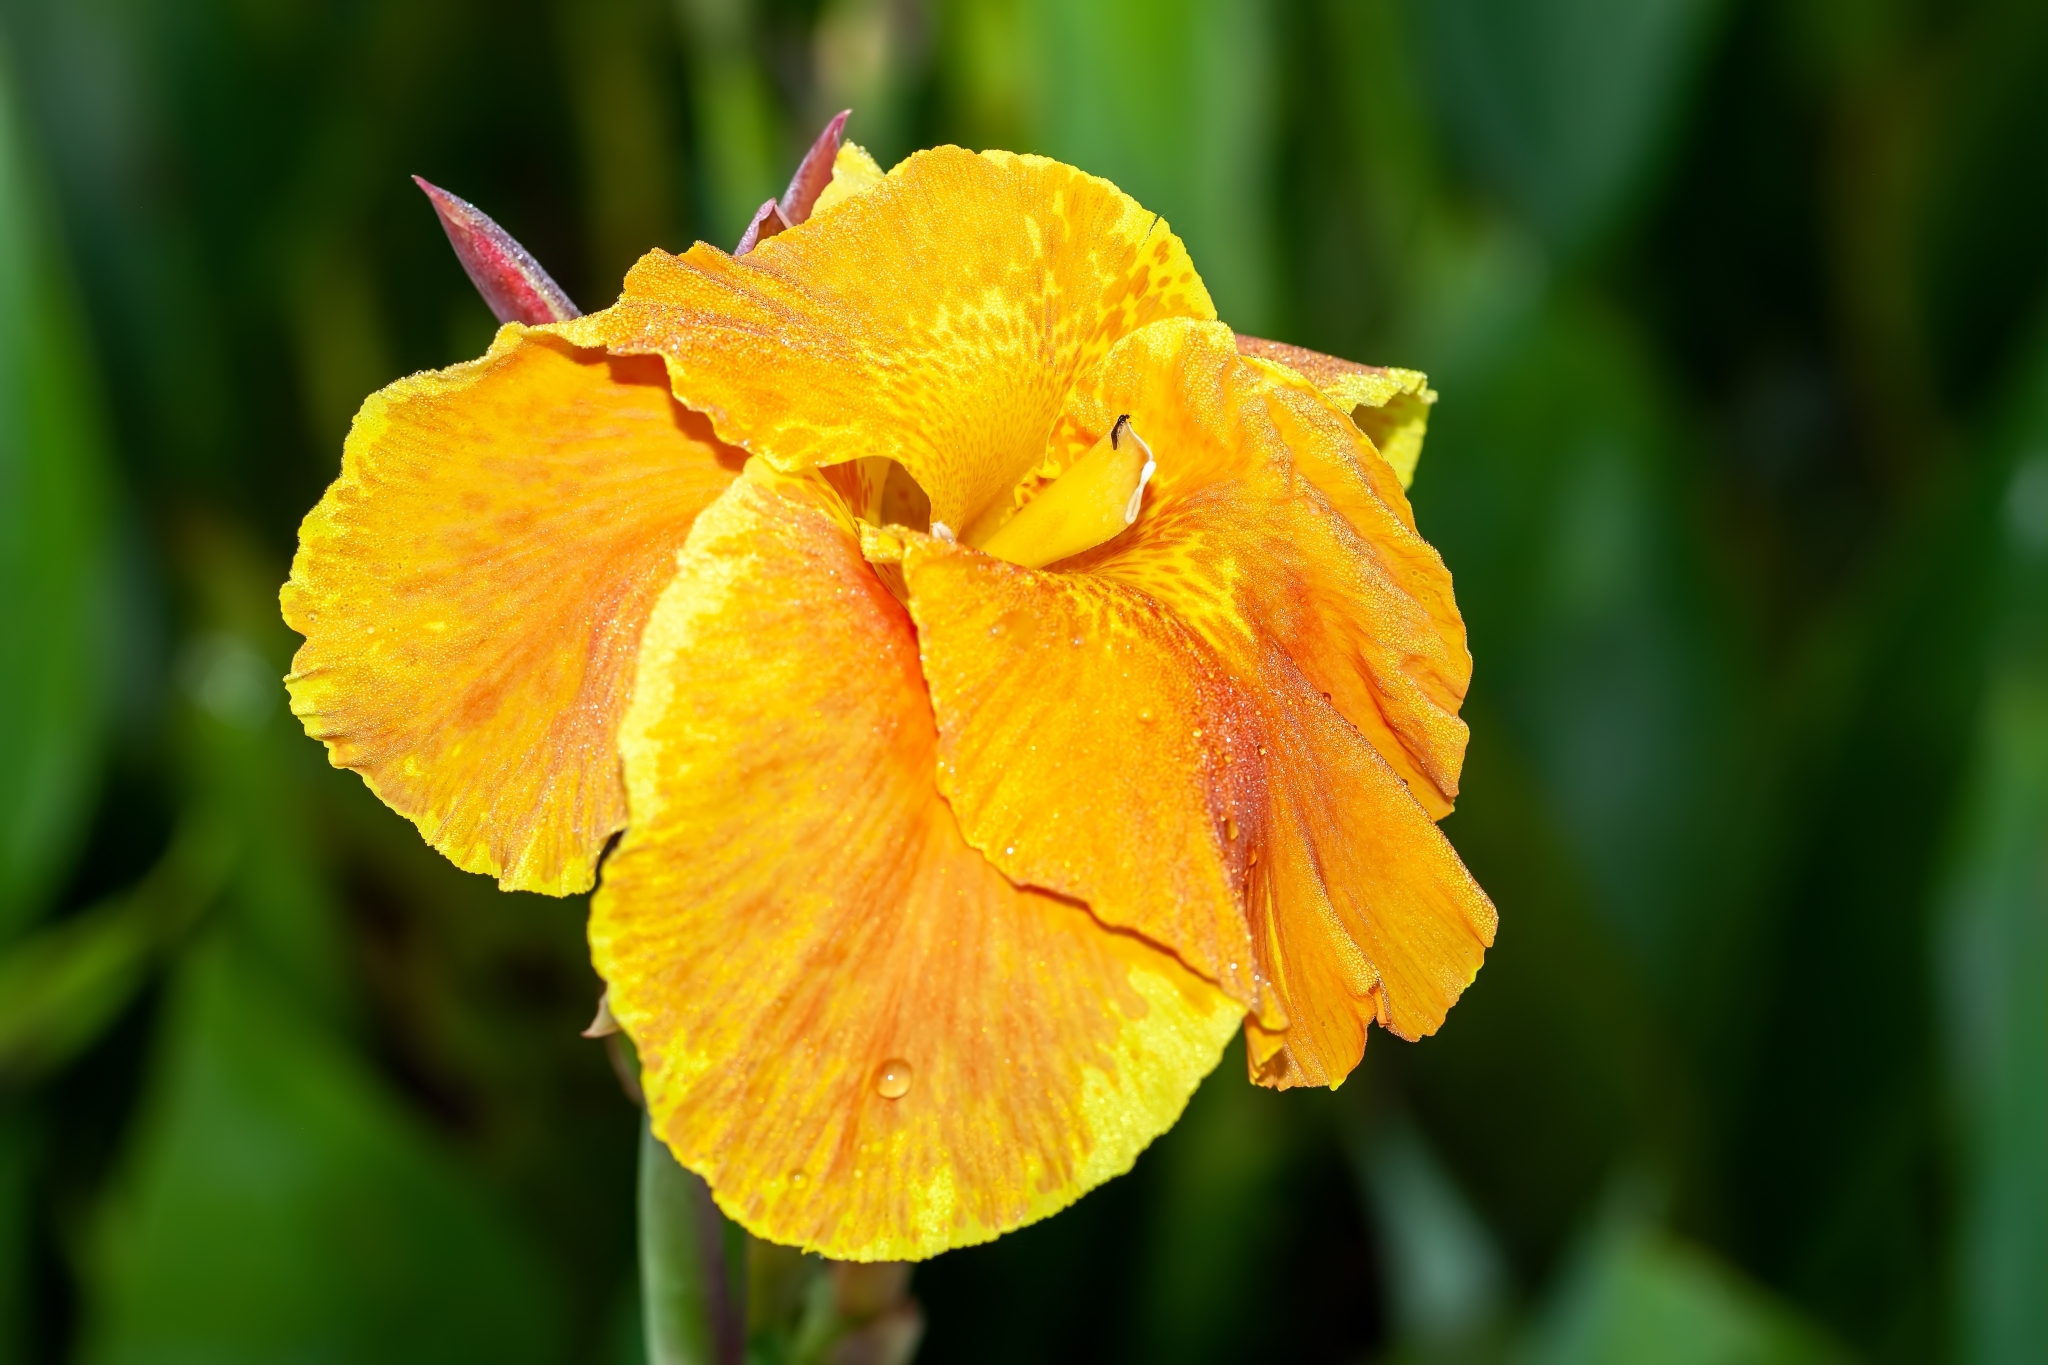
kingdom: Plantae
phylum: Tracheophyta
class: Liliopsida
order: Zingiberales
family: Cannaceae
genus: Canna
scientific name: Canna hybrida
